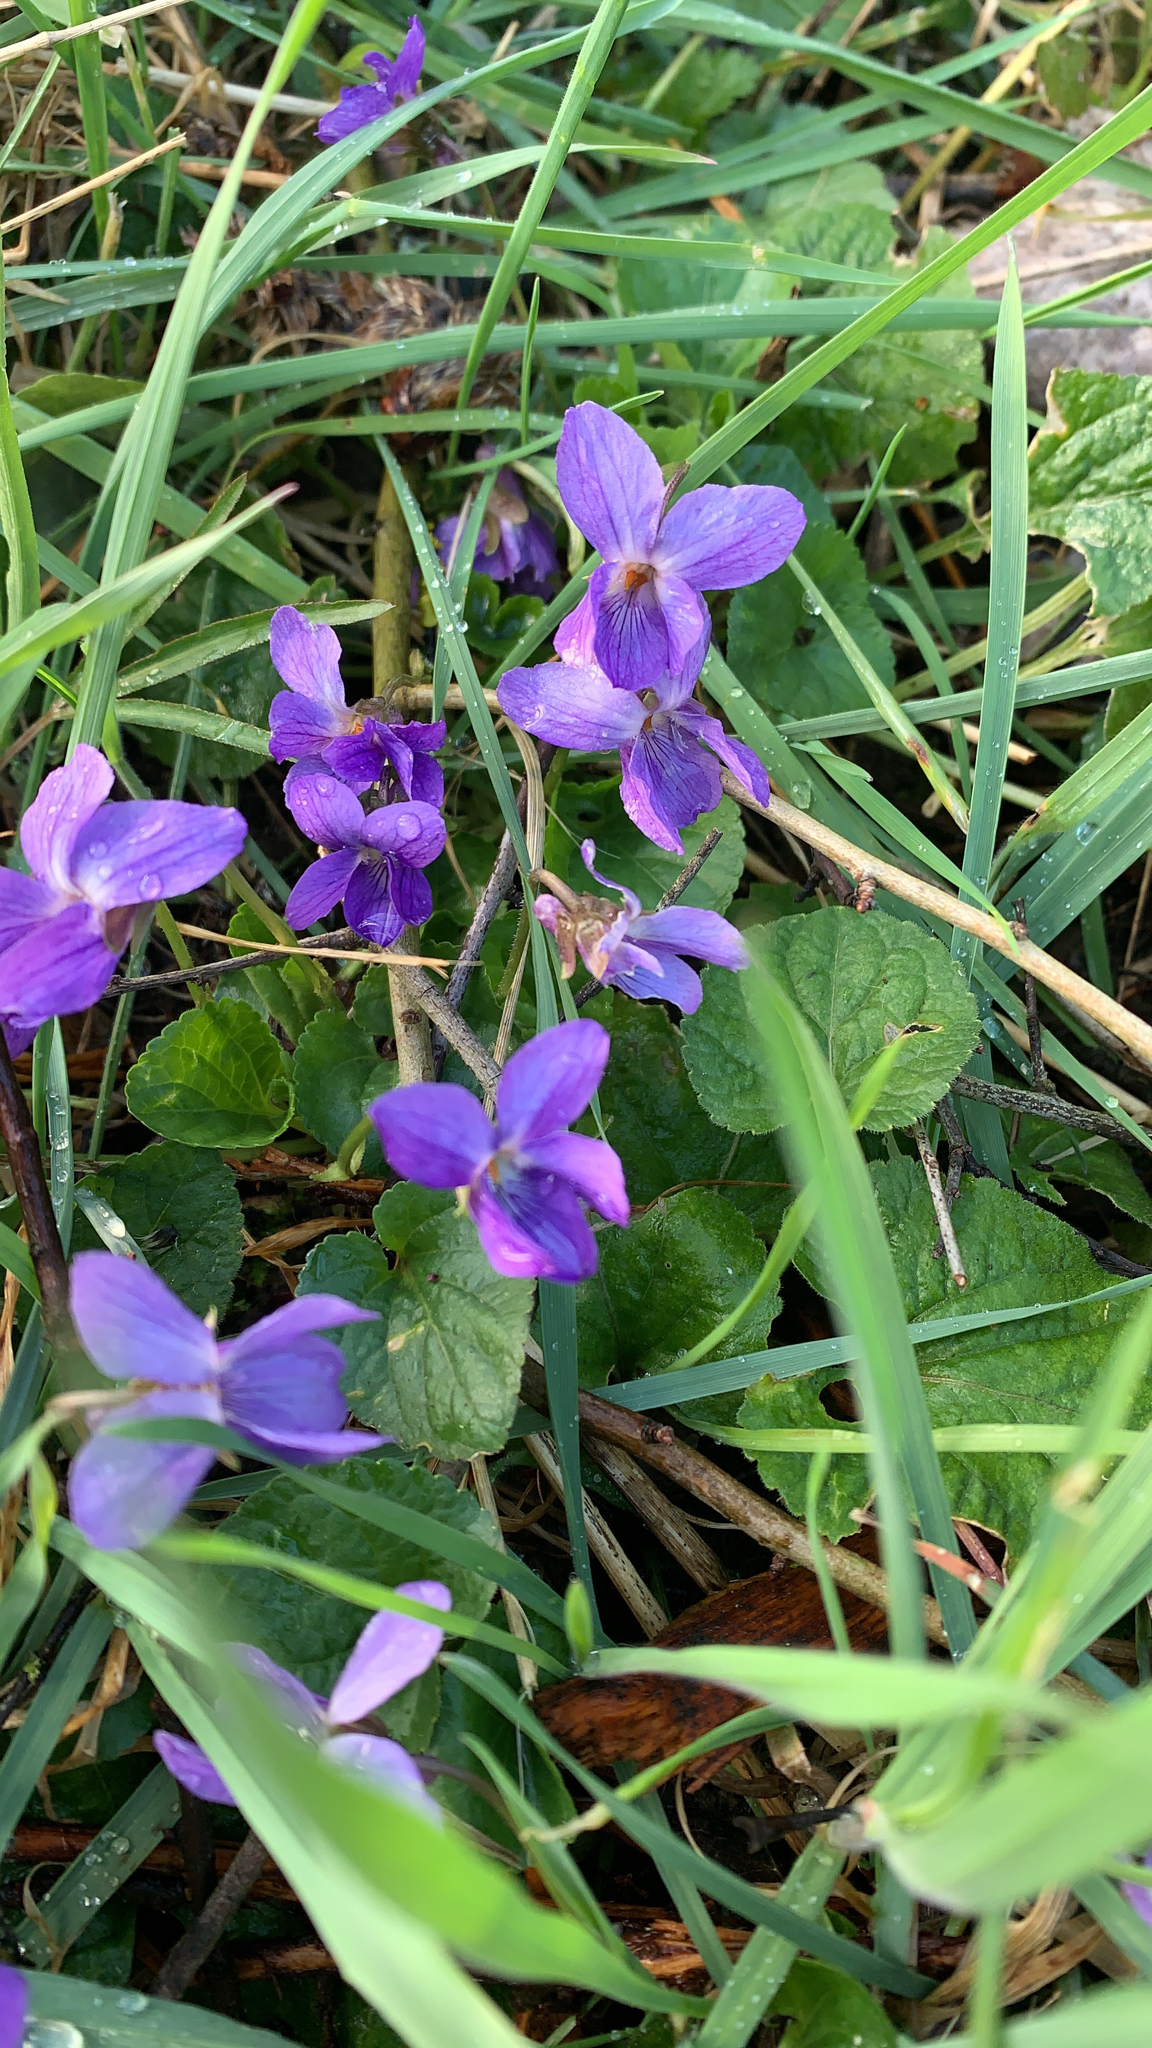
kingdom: Plantae
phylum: Tracheophyta
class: Magnoliopsida
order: Malpighiales
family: Violaceae
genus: Viola
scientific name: Viola odorata
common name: Sweet violet
